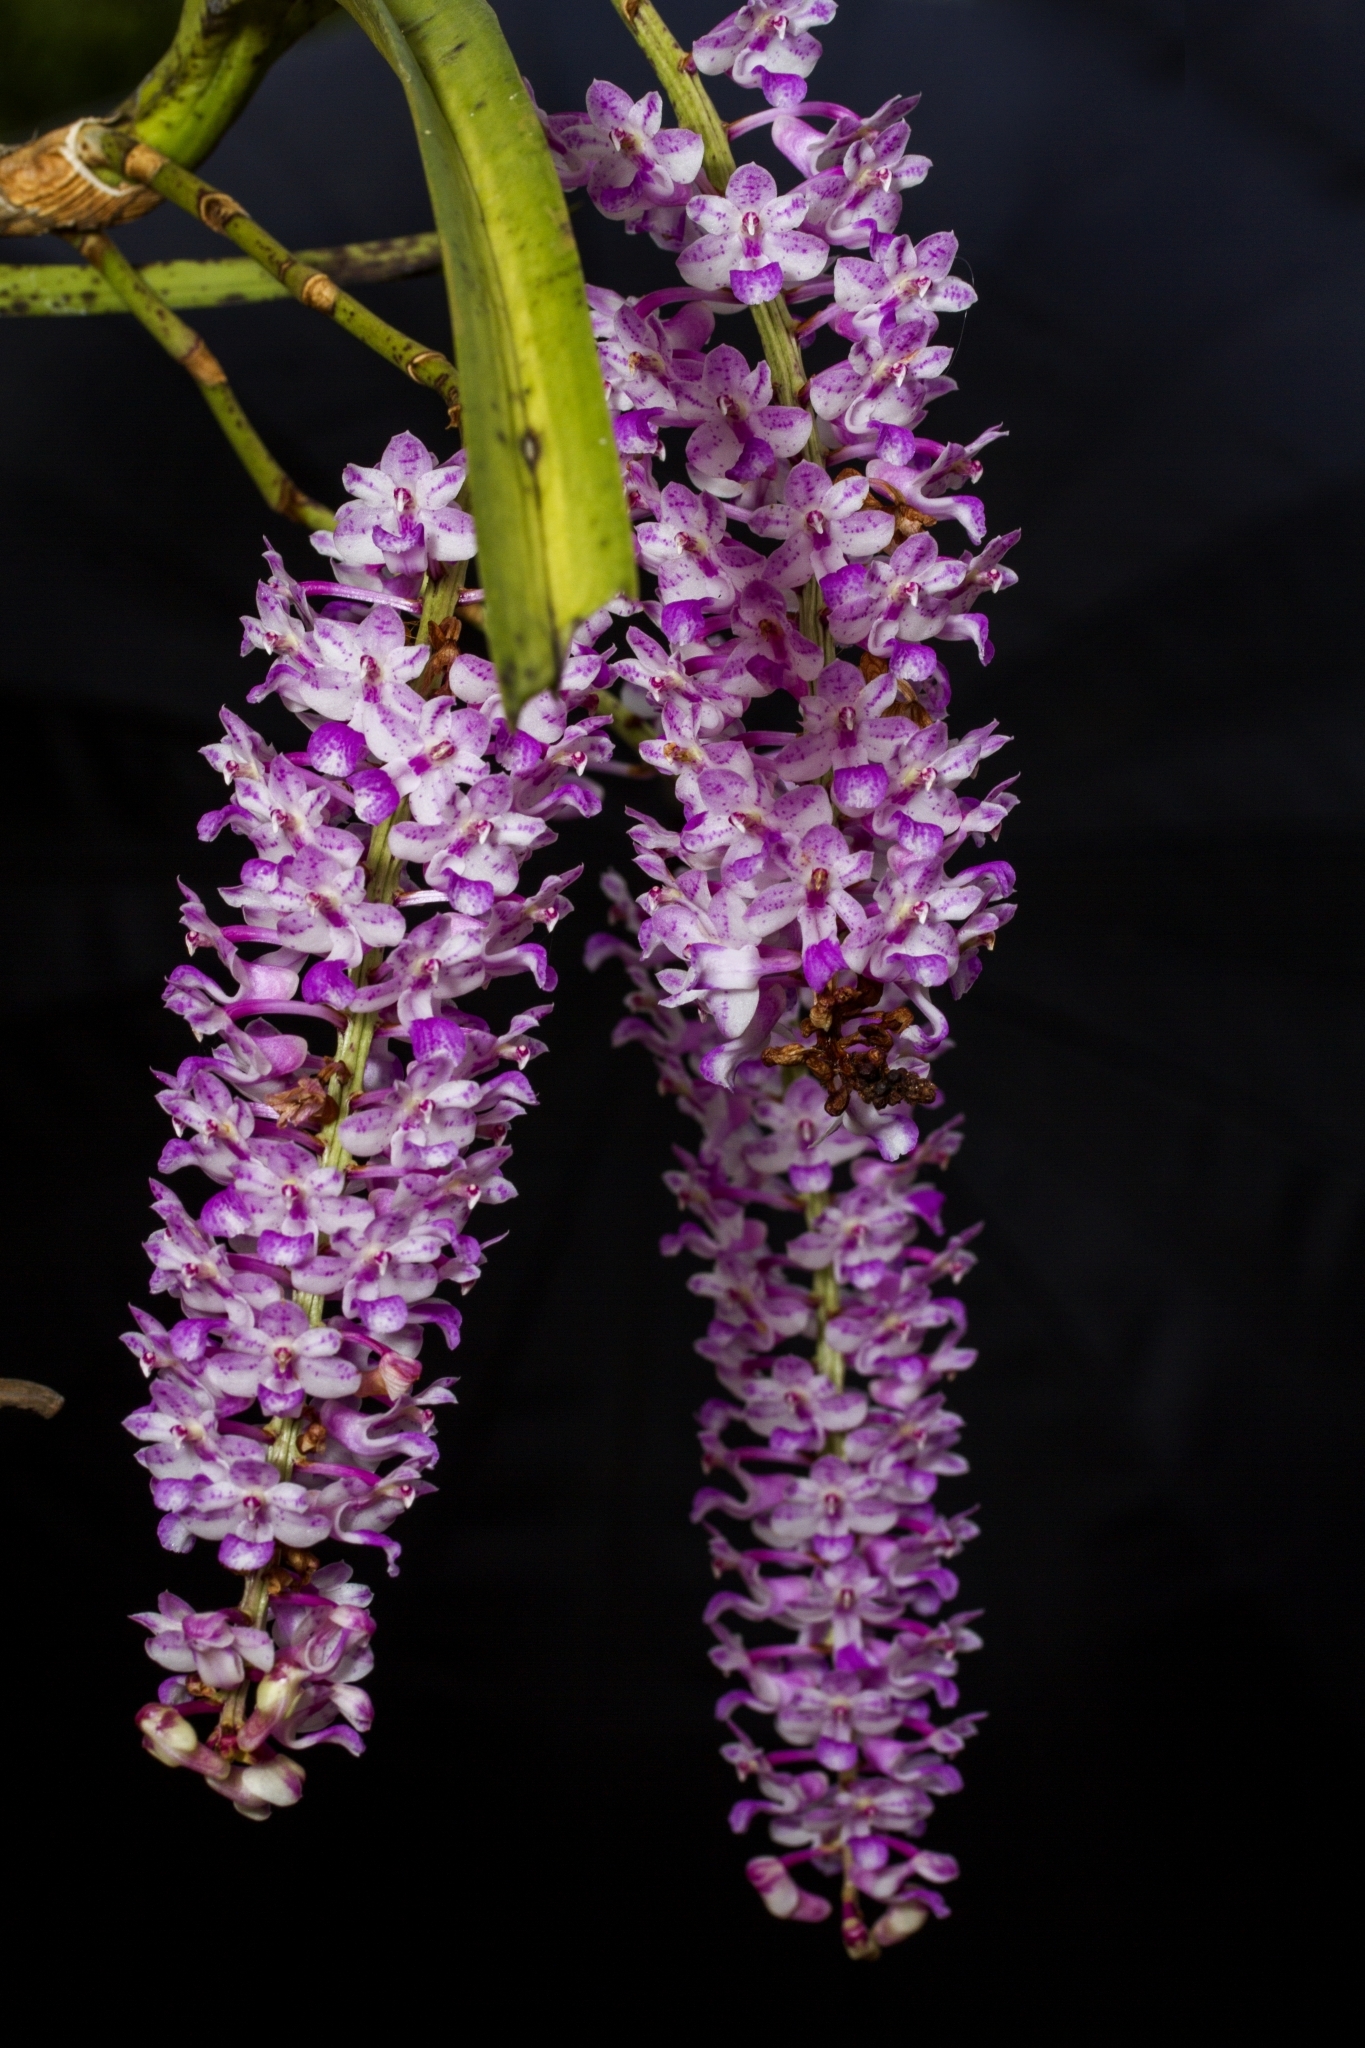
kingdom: Plantae
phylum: Tracheophyta
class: Liliopsida
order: Asparagales
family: Orchidaceae
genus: Rhynchostylis
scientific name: Rhynchostylis retusa
